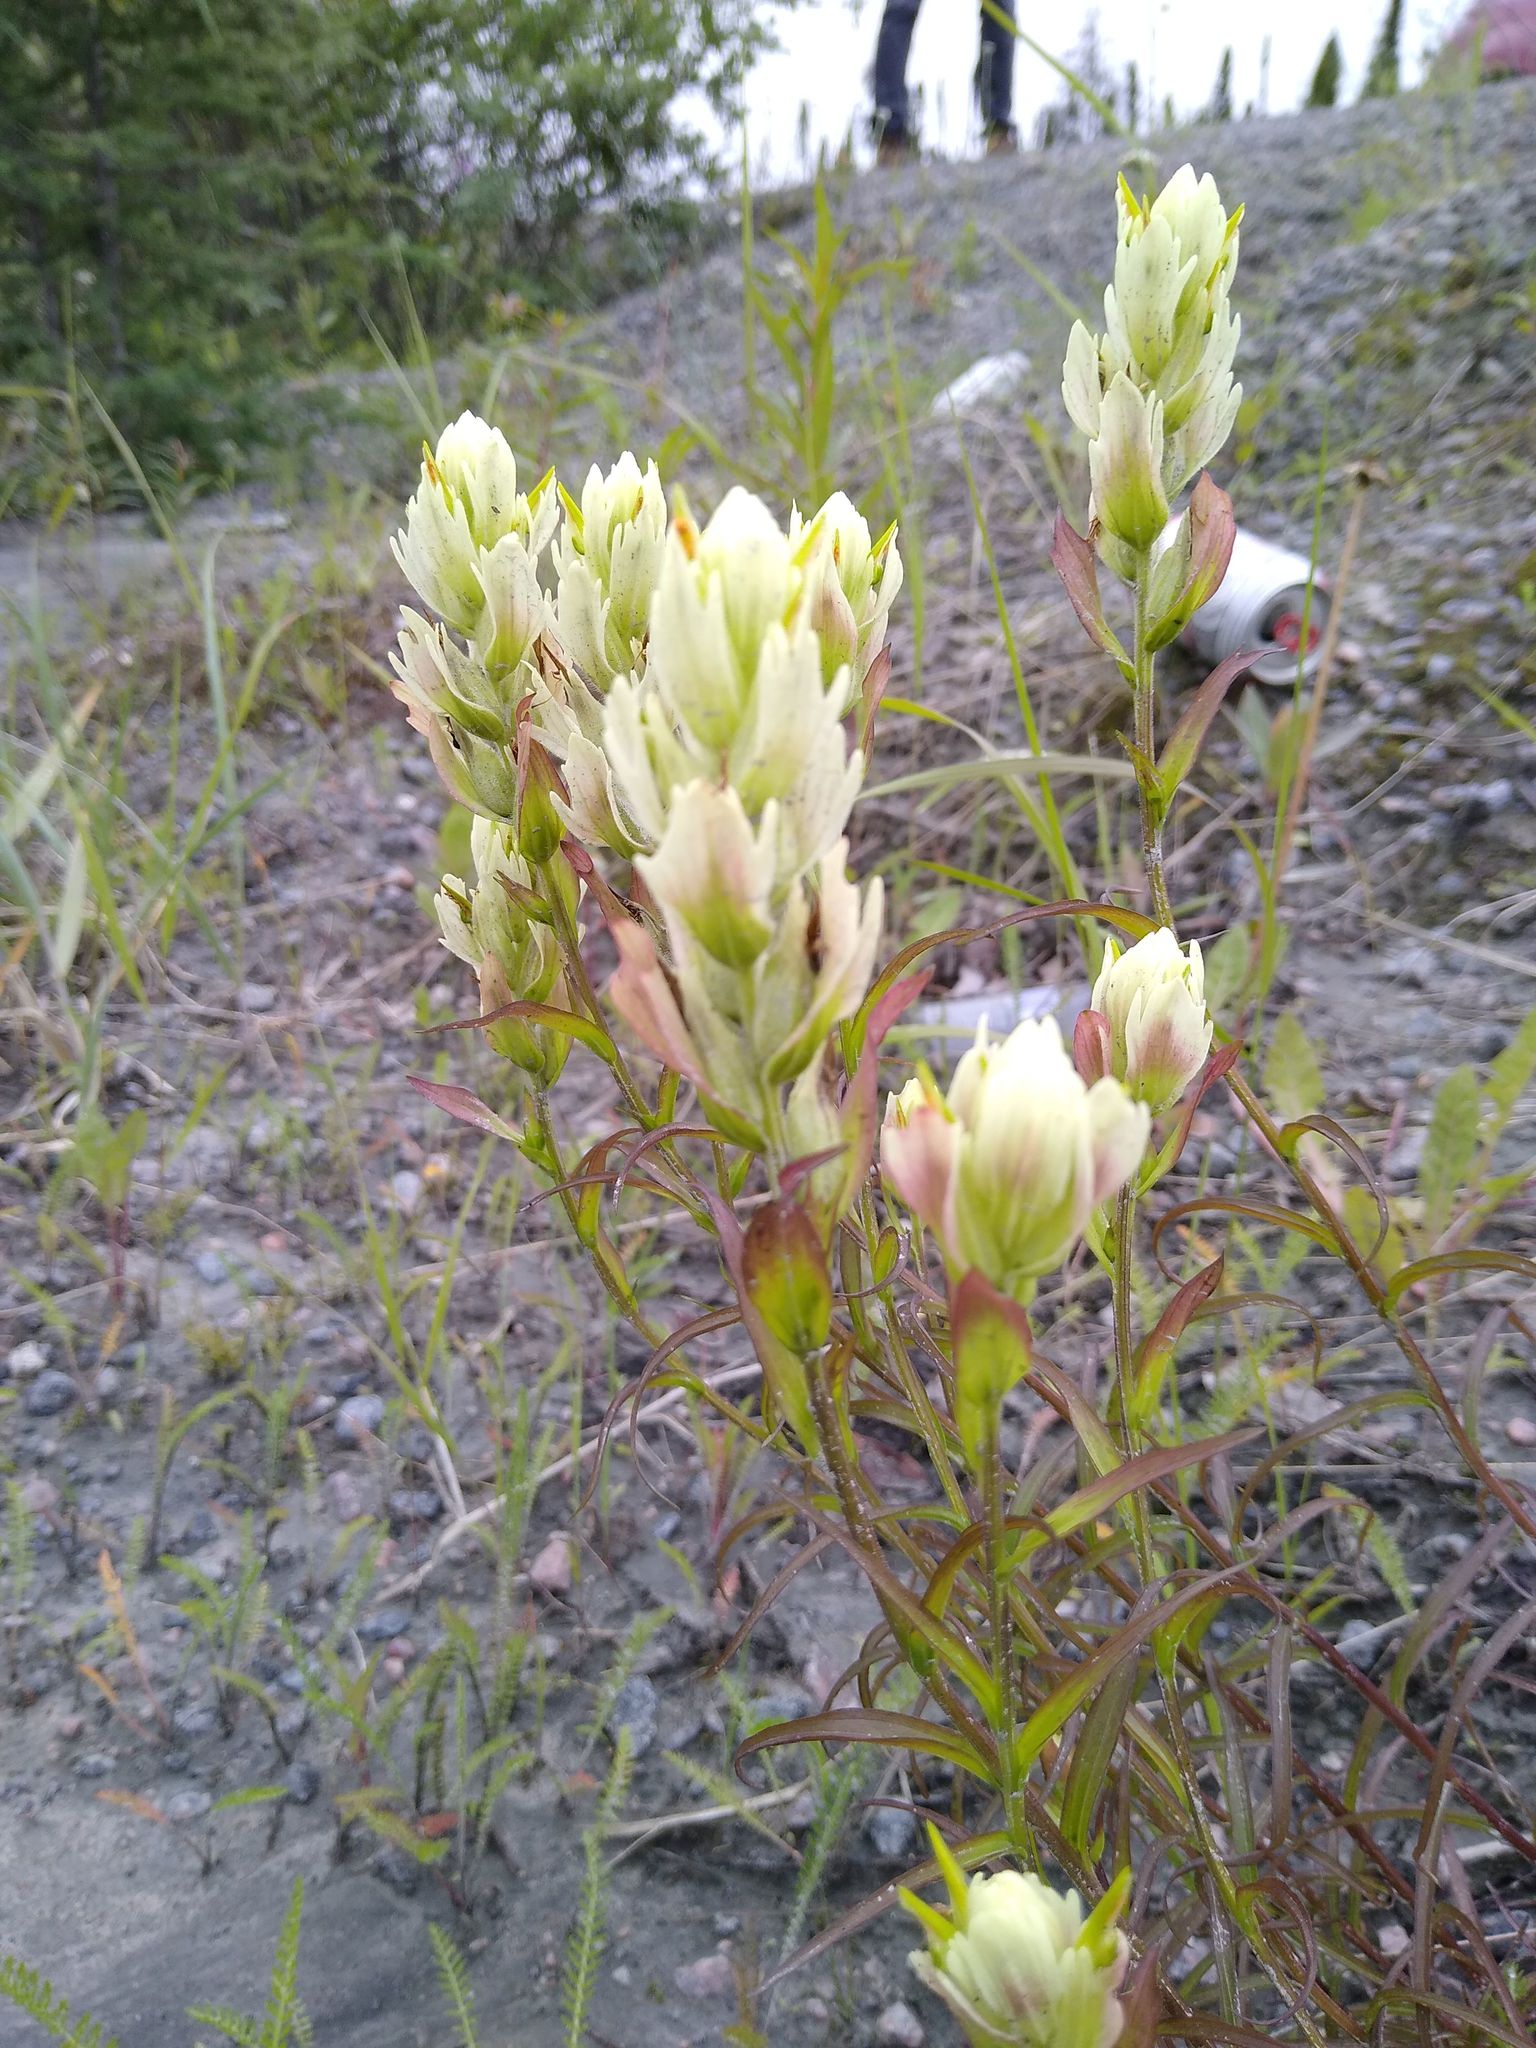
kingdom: Plantae
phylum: Tracheophyta
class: Magnoliopsida
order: Lamiales
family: Orobanchaceae
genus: Castilleja
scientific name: Castilleja septentrionalis
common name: Northeastern paintbrush
